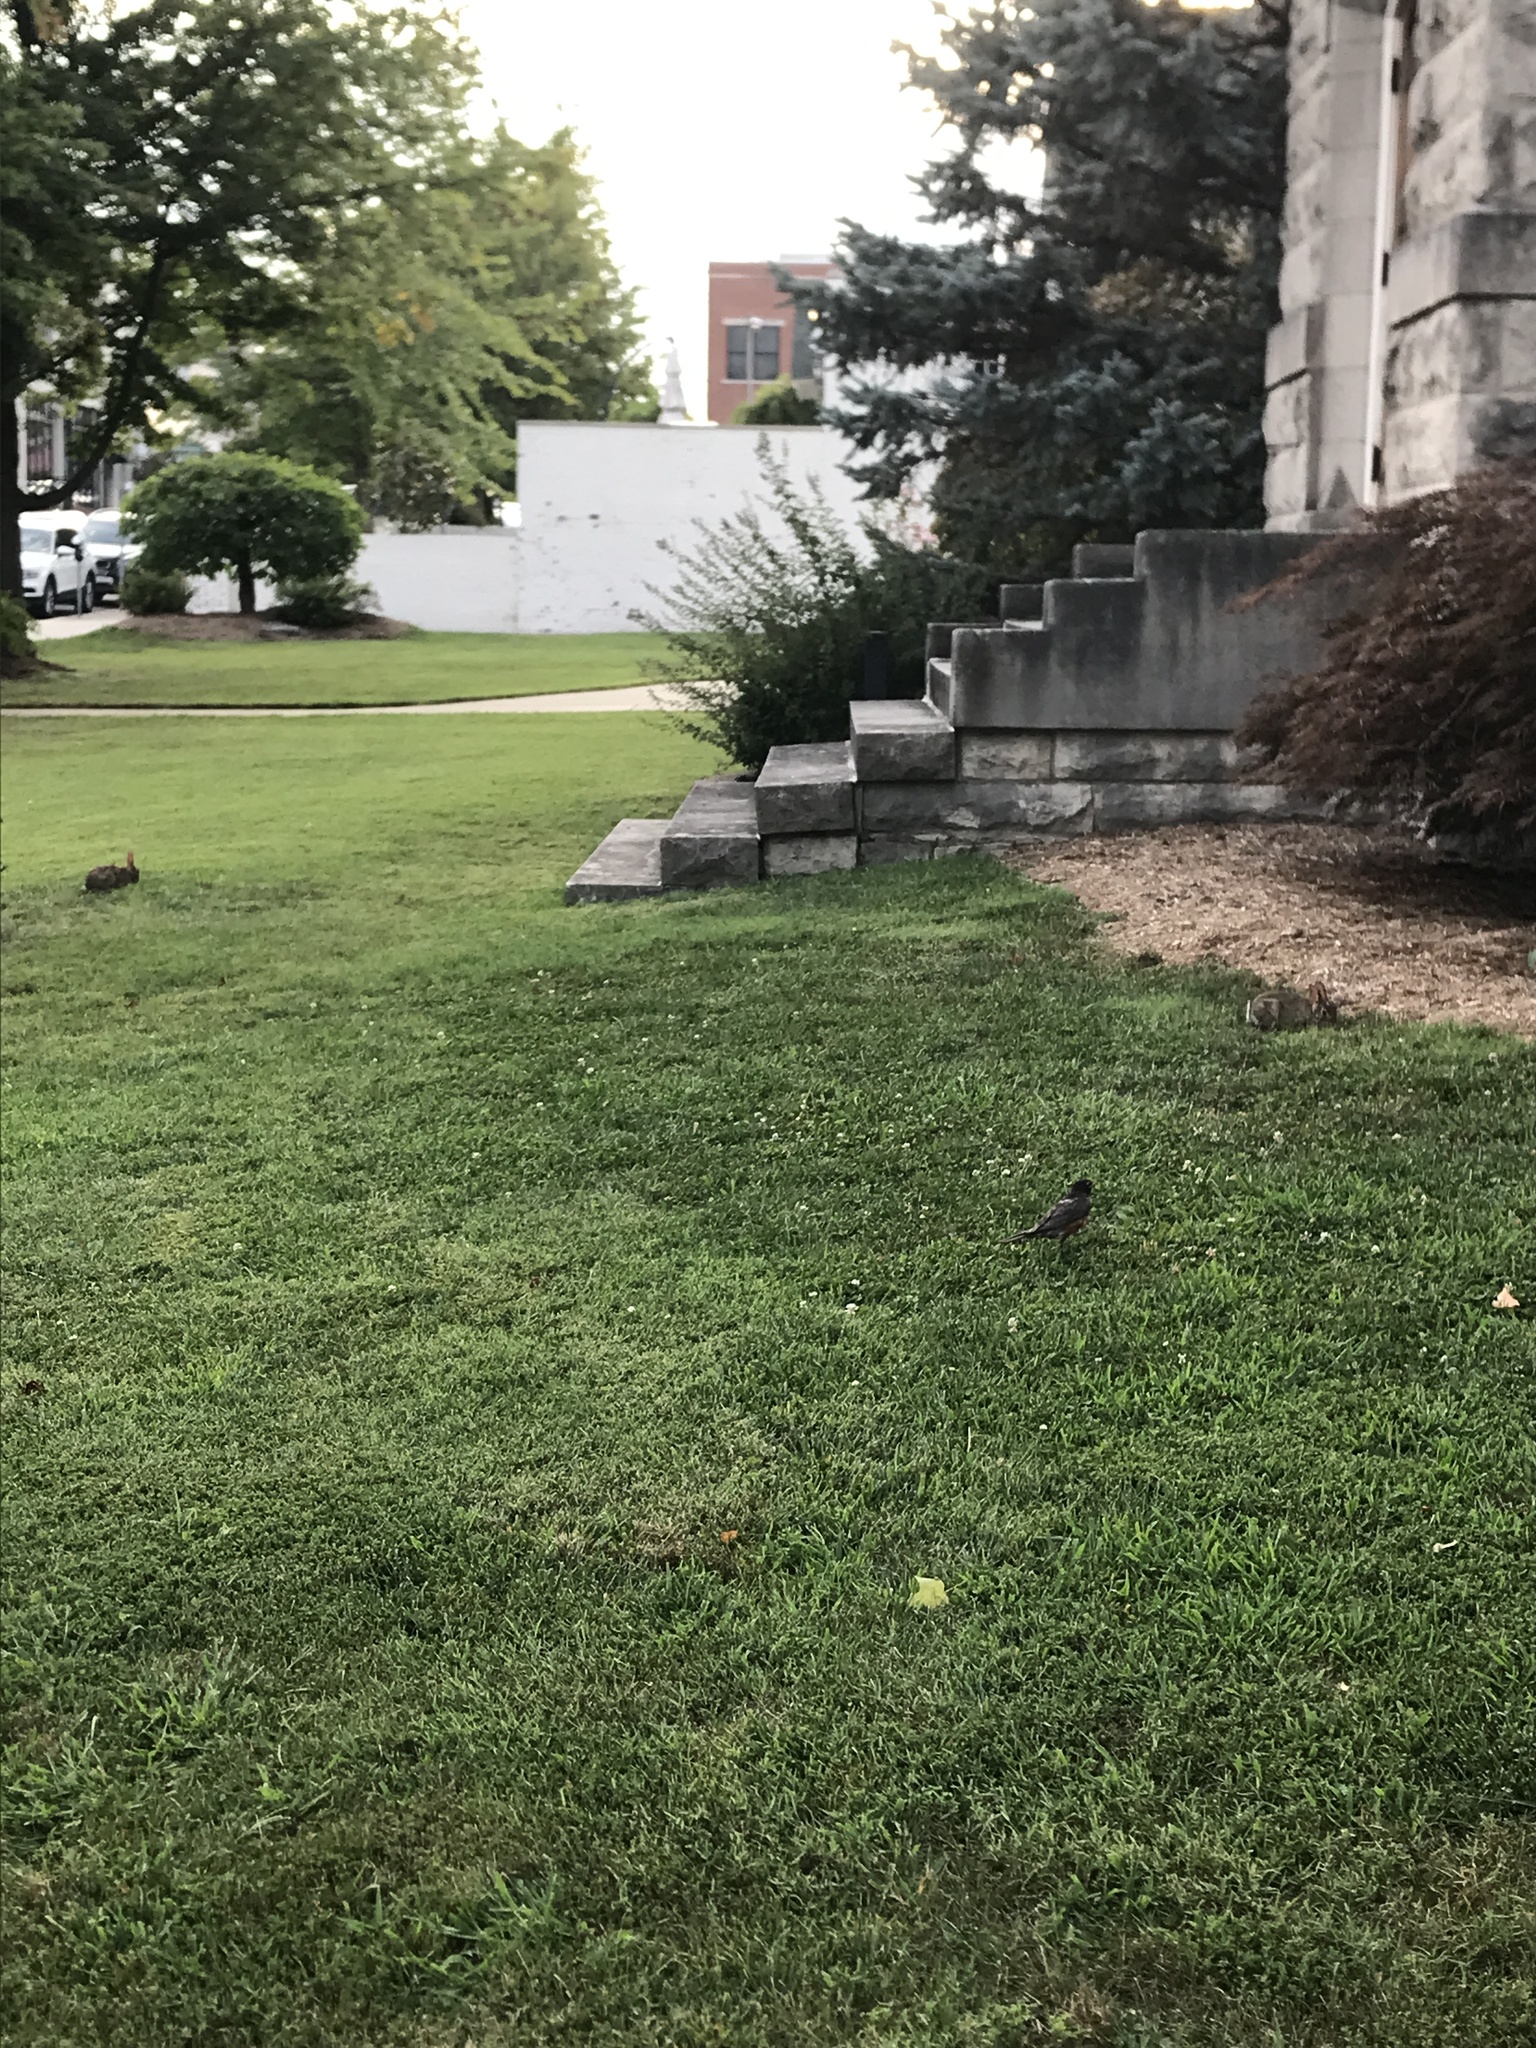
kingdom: Animalia
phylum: Chordata
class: Mammalia
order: Lagomorpha
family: Leporidae
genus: Sylvilagus
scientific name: Sylvilagus floridanus
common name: Eastern cottontail
